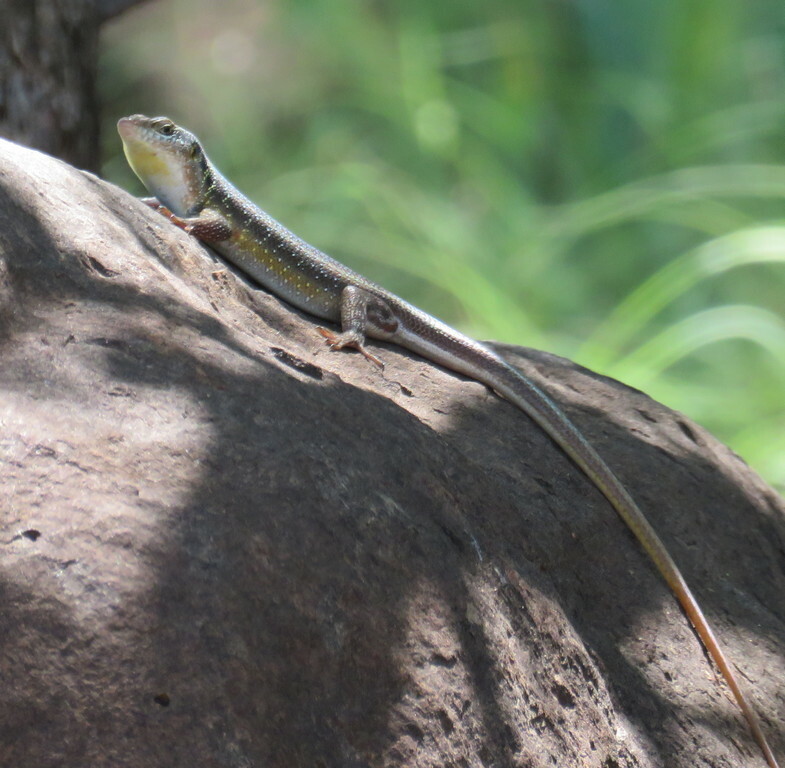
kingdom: Animalia
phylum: Chordata
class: Squamata
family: Scincidae
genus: Trachylepis
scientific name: Trachylepis margaritifera
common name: Rainbow skink
